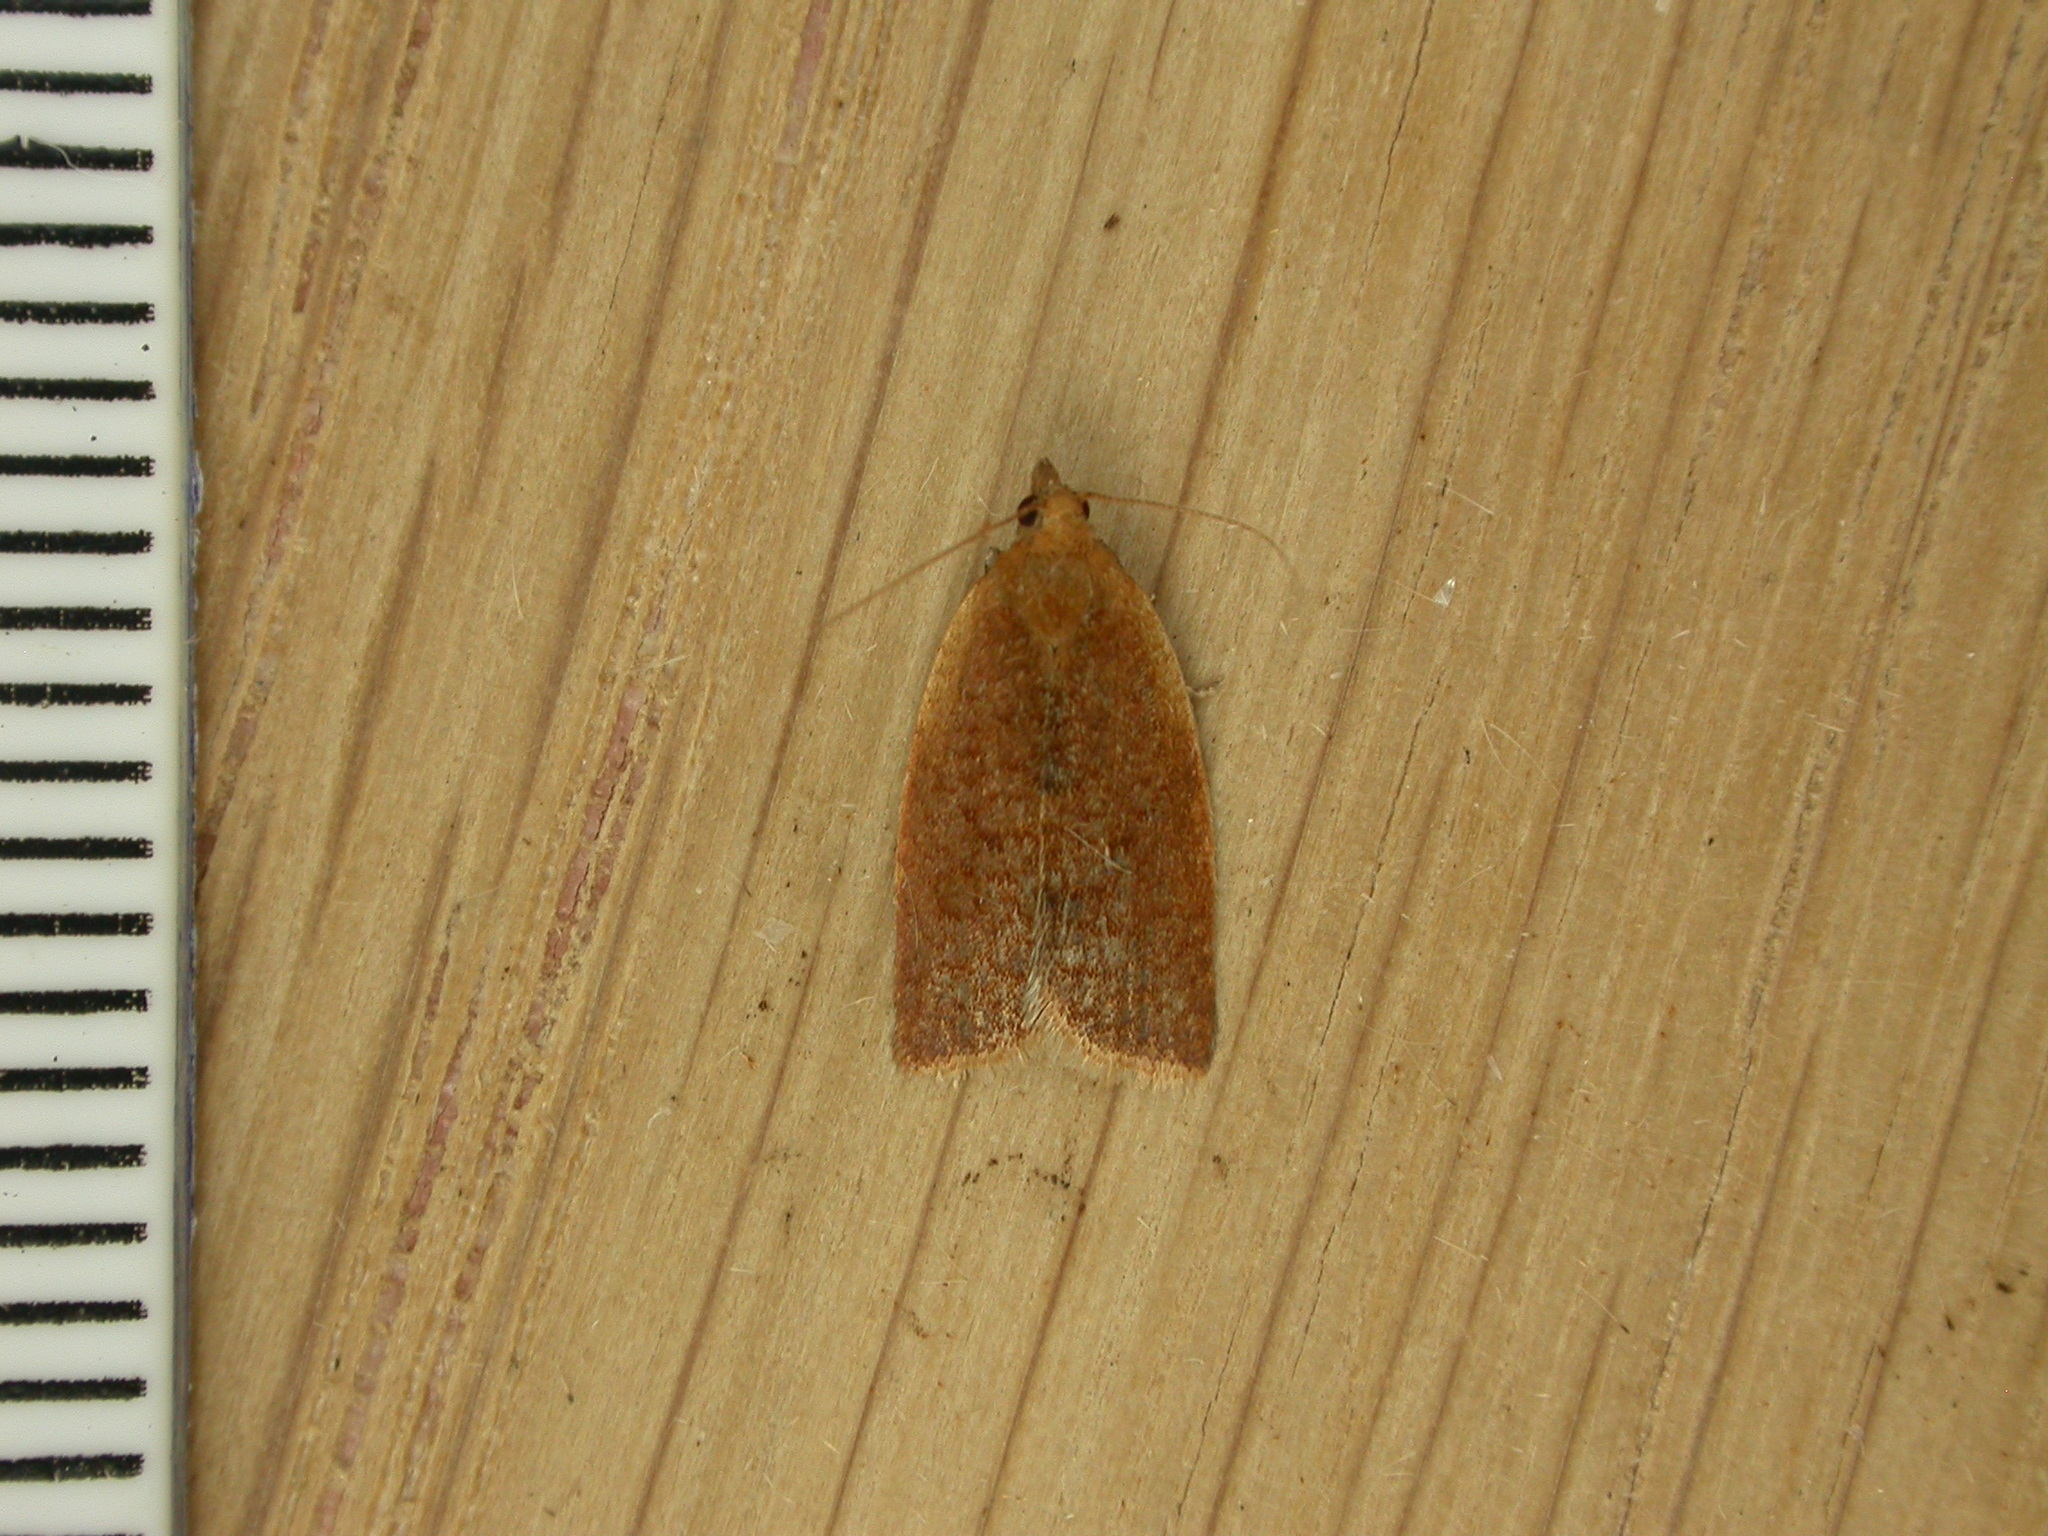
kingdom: Animalia
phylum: Arthropoda
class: Insecta
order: Lepidoptera
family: Tortricidae
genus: Clepsis
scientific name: Clepsis consimilana
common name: Privet tortrix
